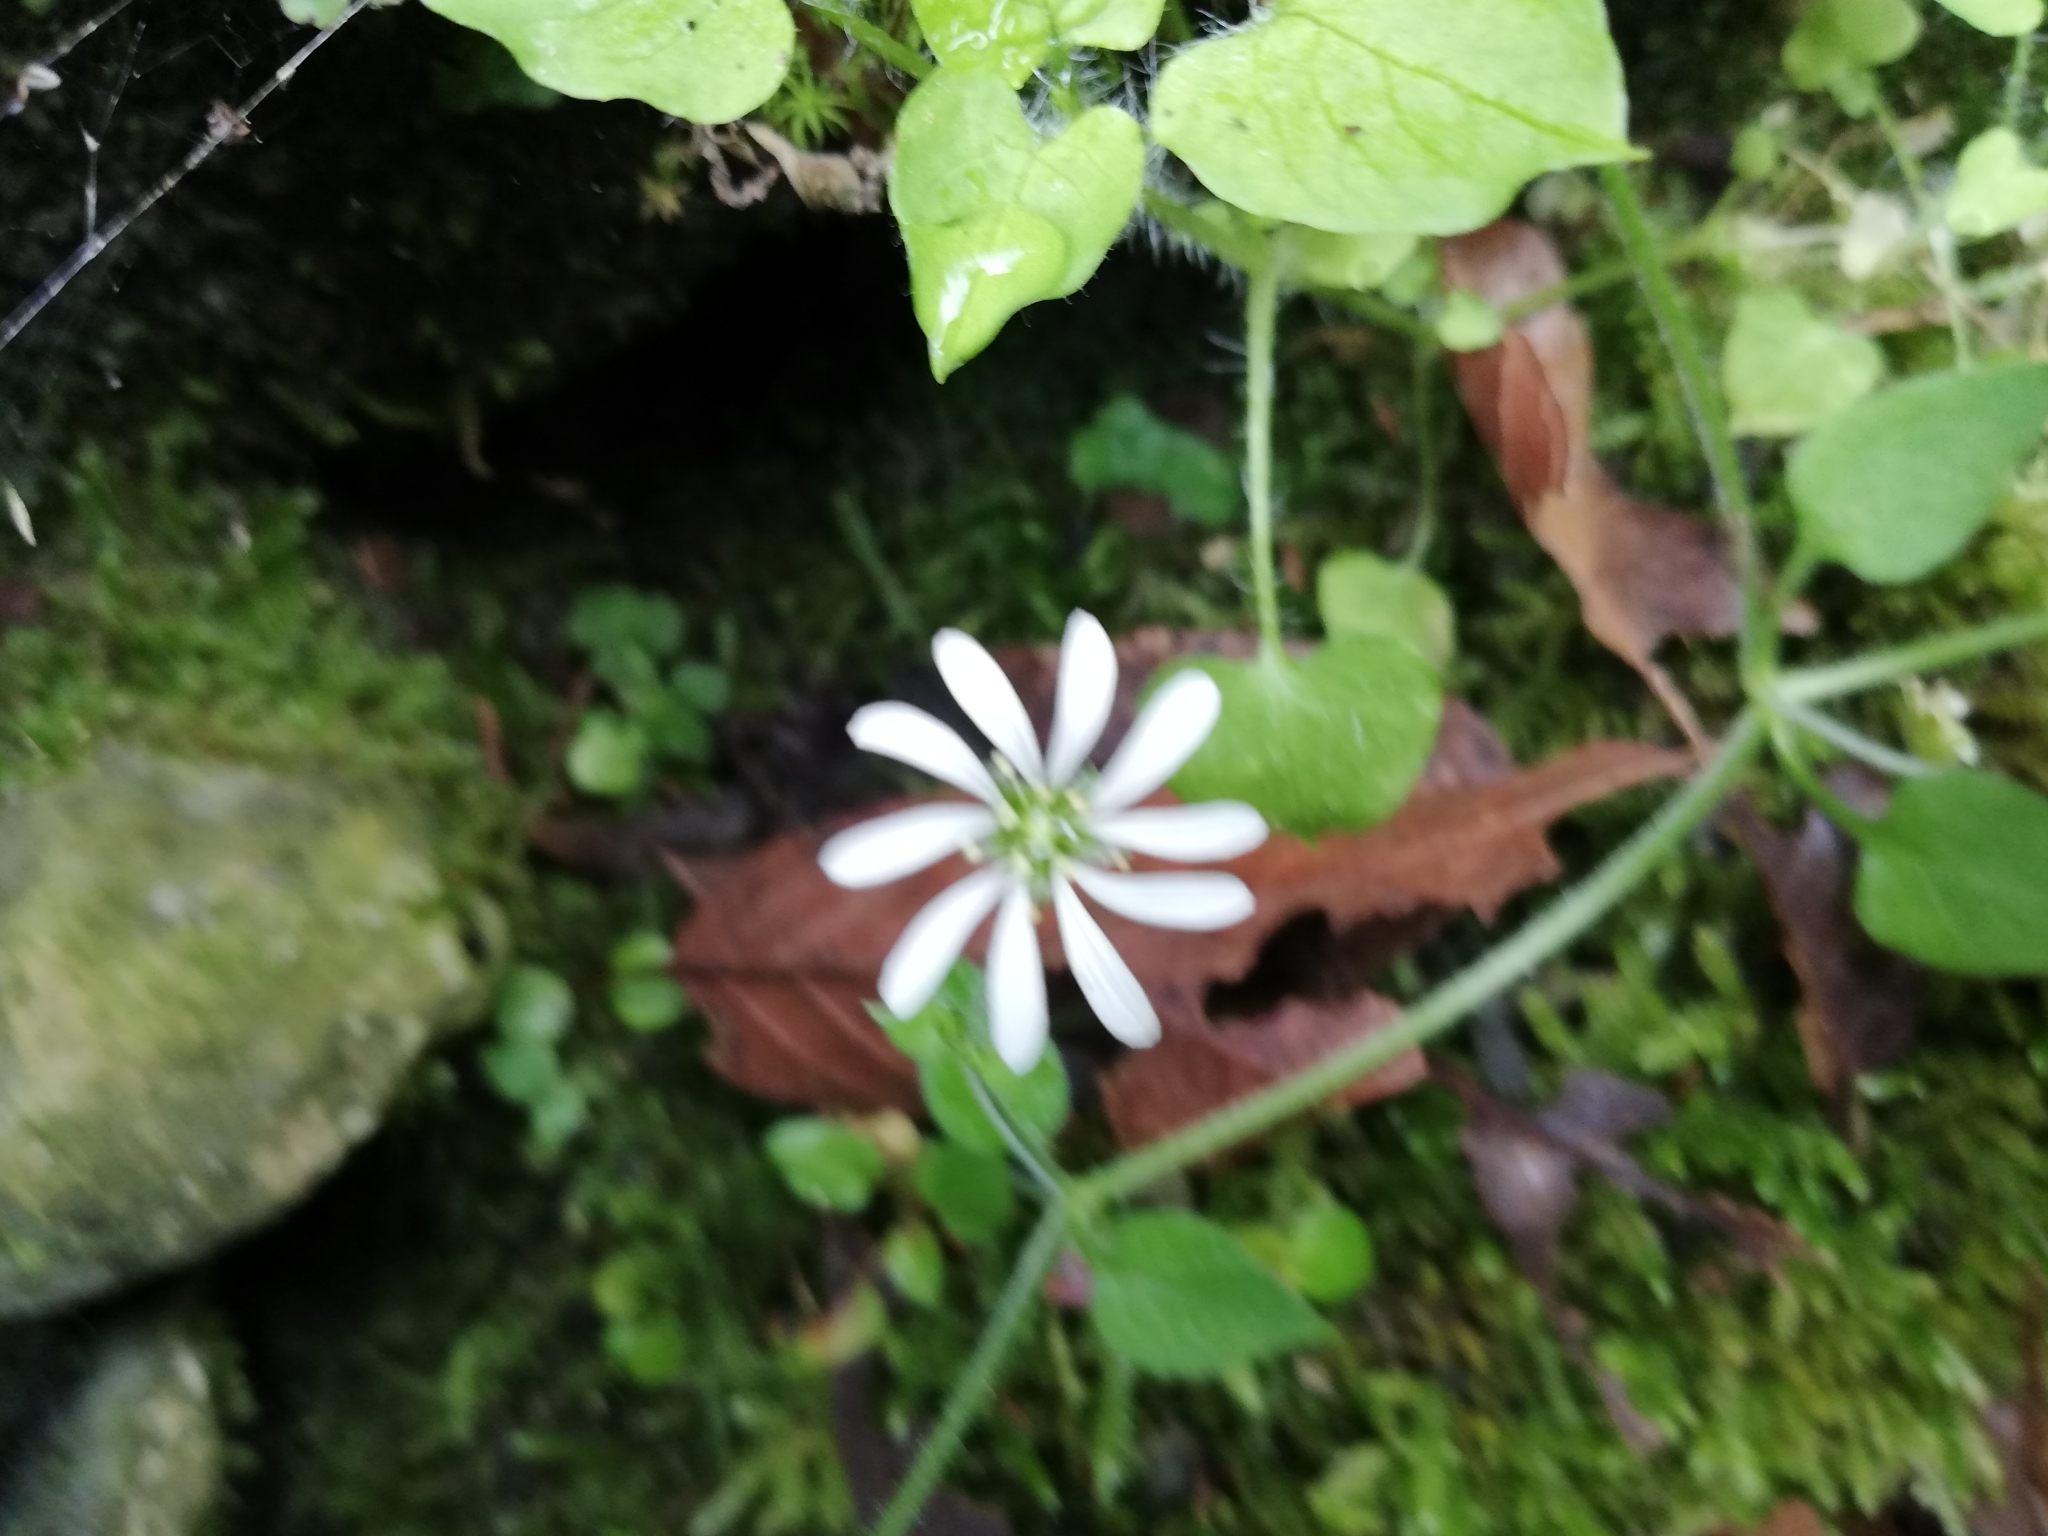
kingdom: Plantae
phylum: Tracheophyta
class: Magnoliopsida
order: Caryophyllales
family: Caryophyllaceae
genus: Stellaria
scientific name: Stellaria cuspidata
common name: Mexican chickweed
